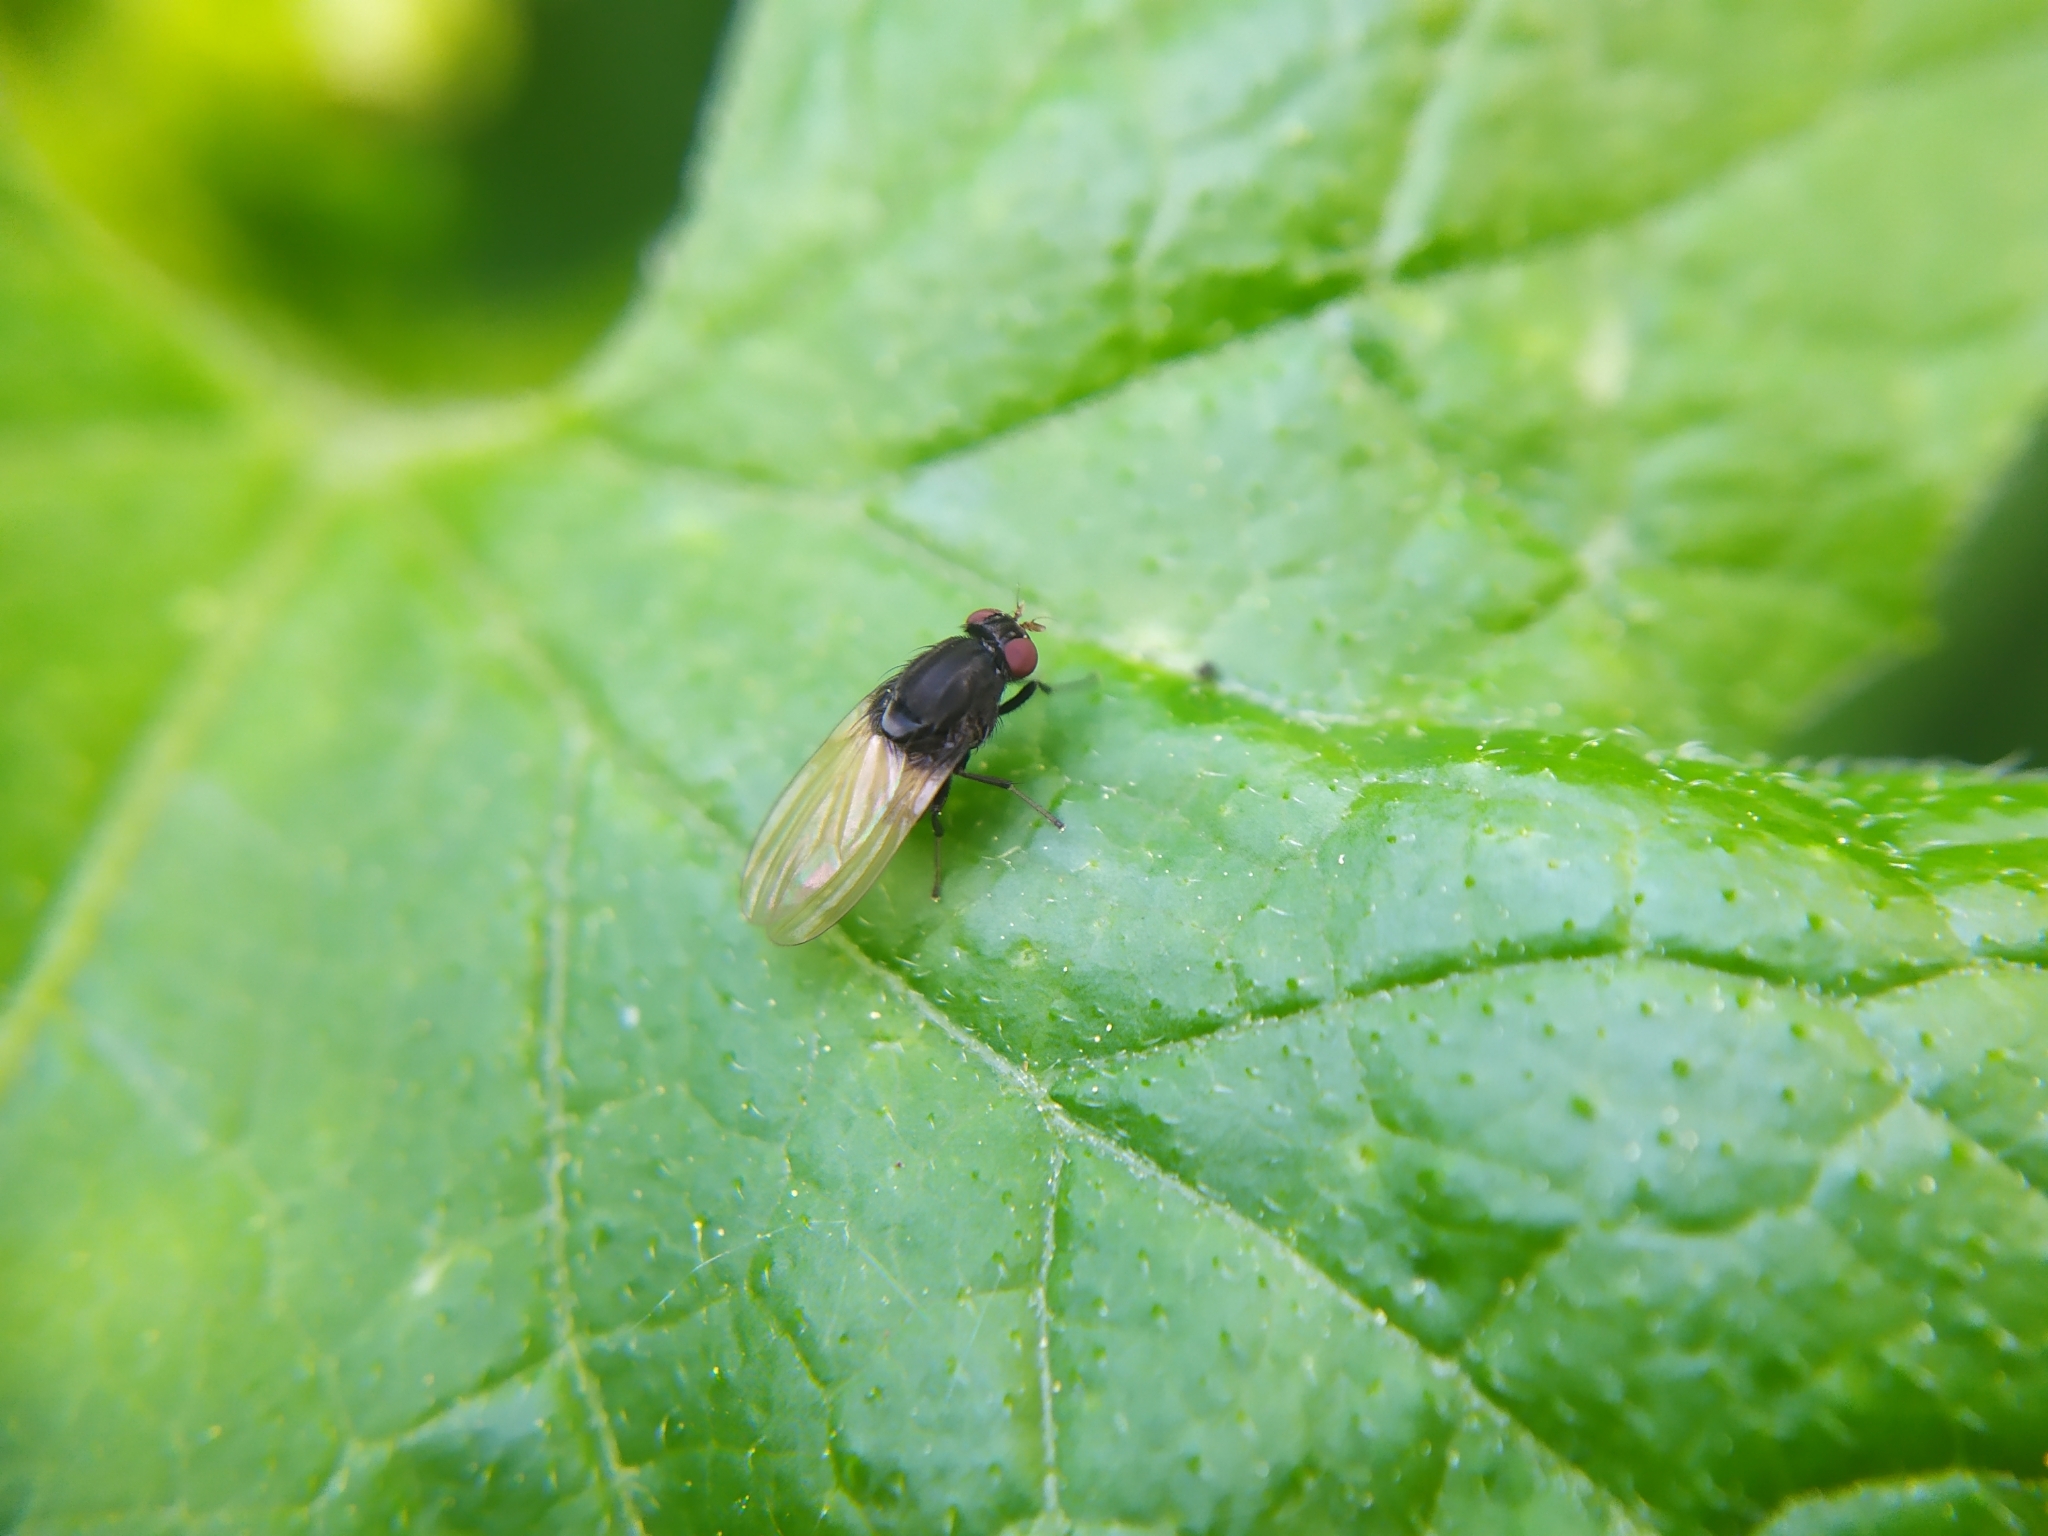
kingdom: Animalia
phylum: Arthropoda
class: Insecta
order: Diptera
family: Lauxaniidae
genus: Minettia
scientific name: Minettia longipennis
